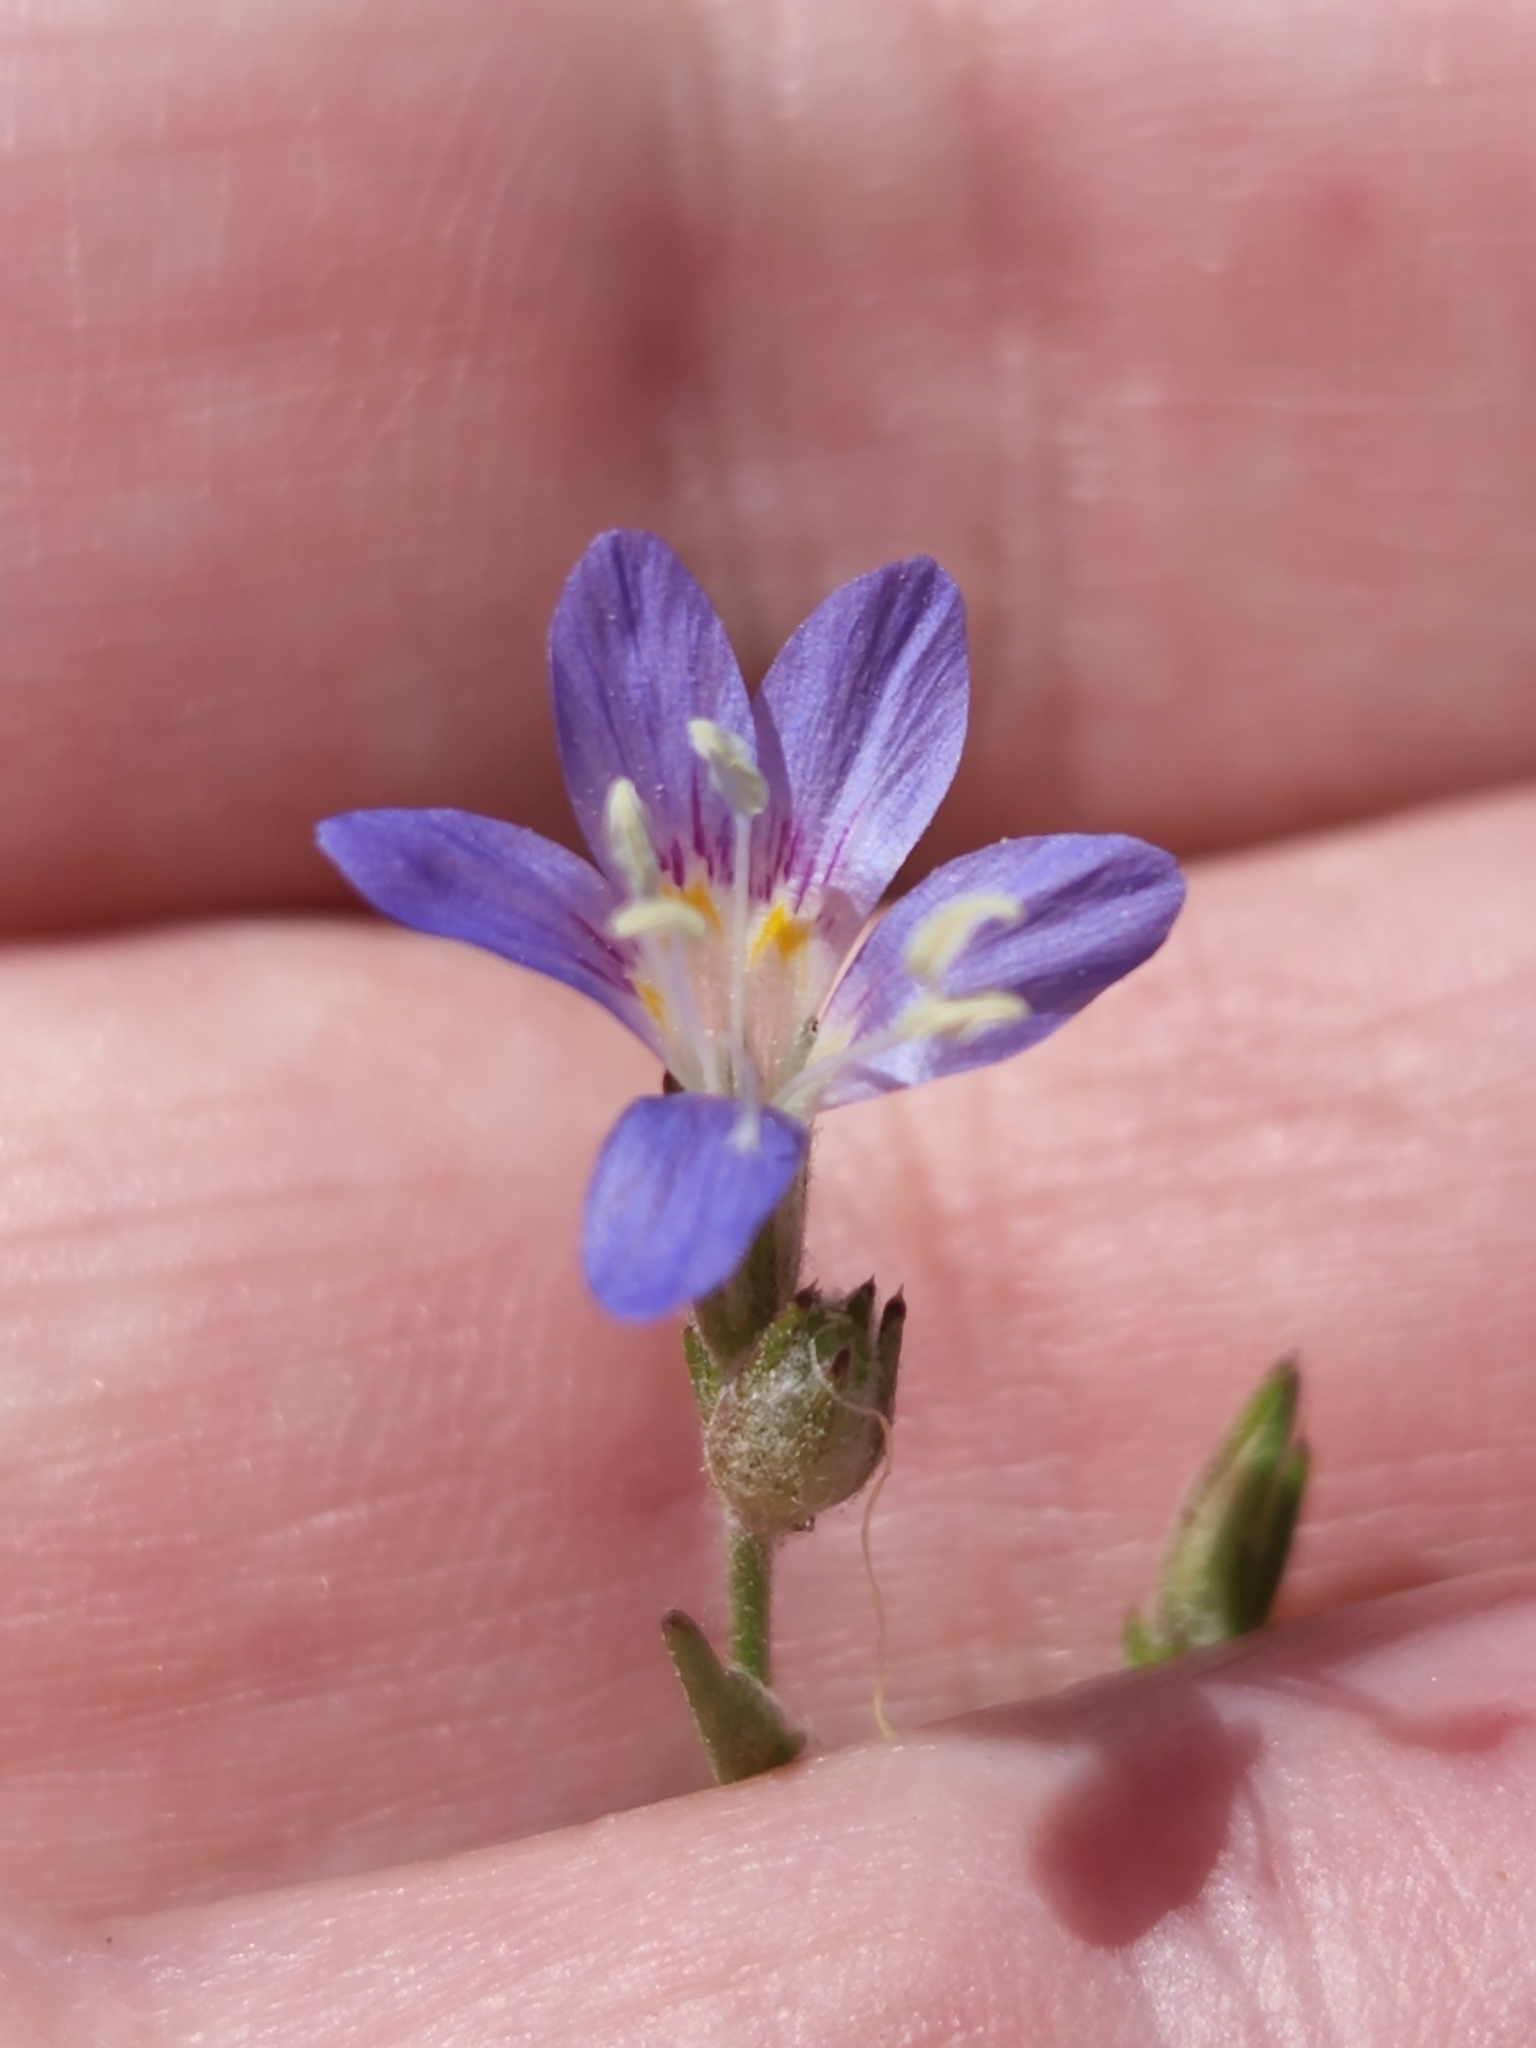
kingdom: Plantae
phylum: Tracheophyta
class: Magnoliopsida
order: Ericales
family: Polemoniaceae
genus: Eriastrum
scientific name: Eriastrum sapphirinum
